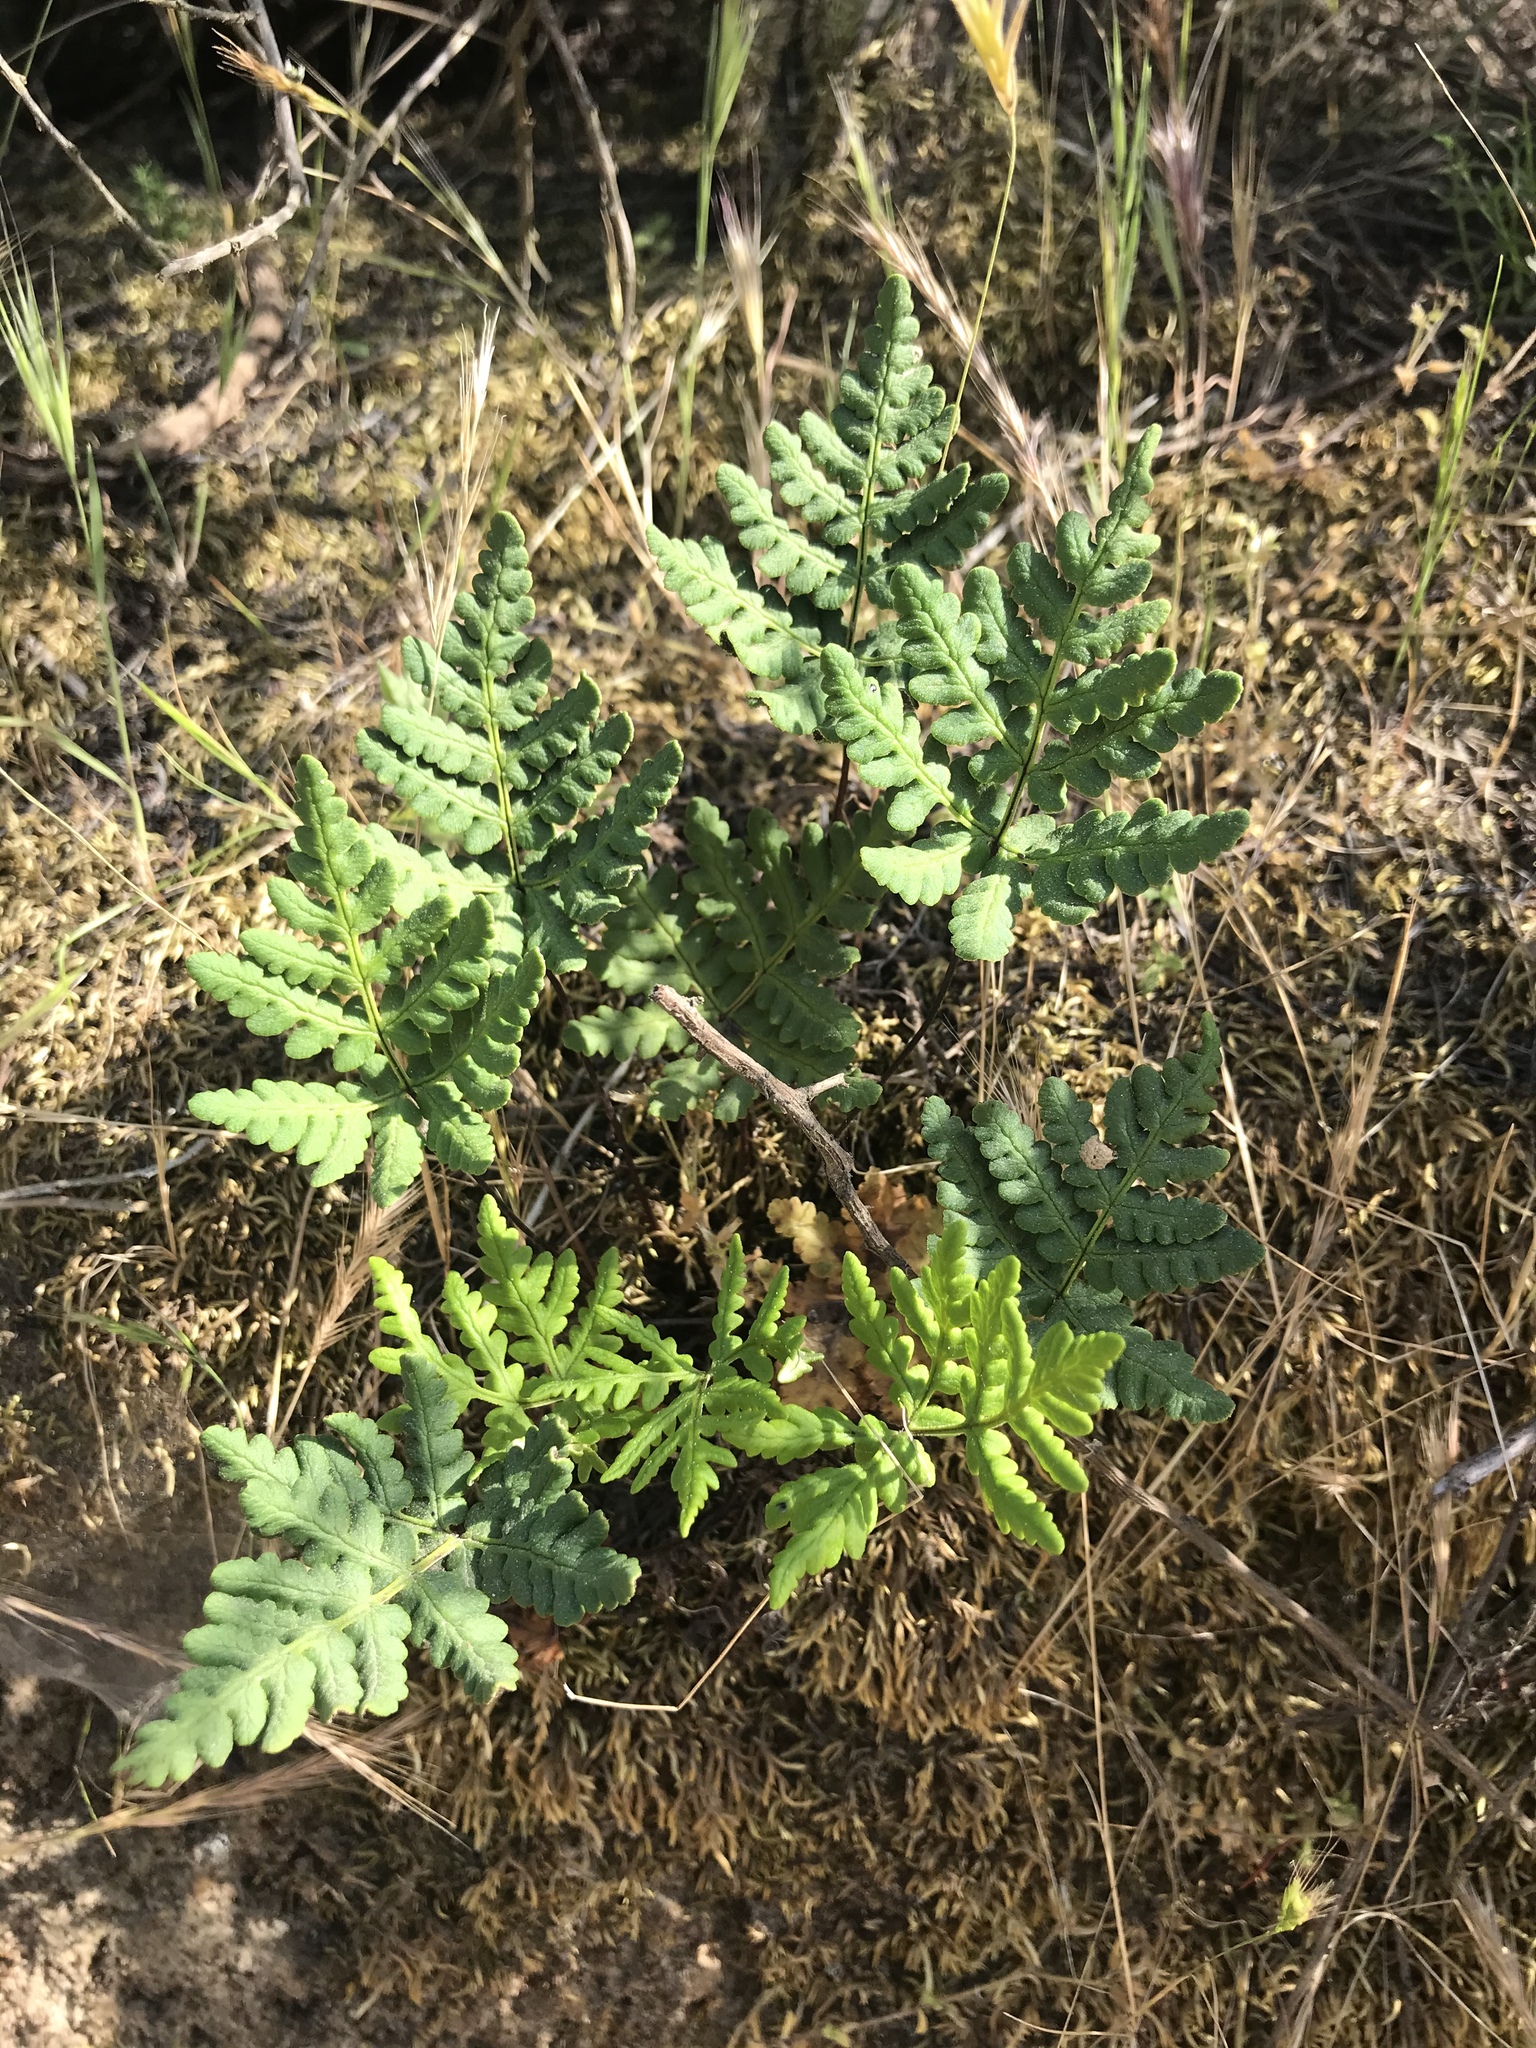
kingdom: Plantae
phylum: Tracheophyta
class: Polypodiopsida
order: Polypodiales
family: Pteridaceae
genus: Pentagramma
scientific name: Pentagramma triangularis
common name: Gold fern
